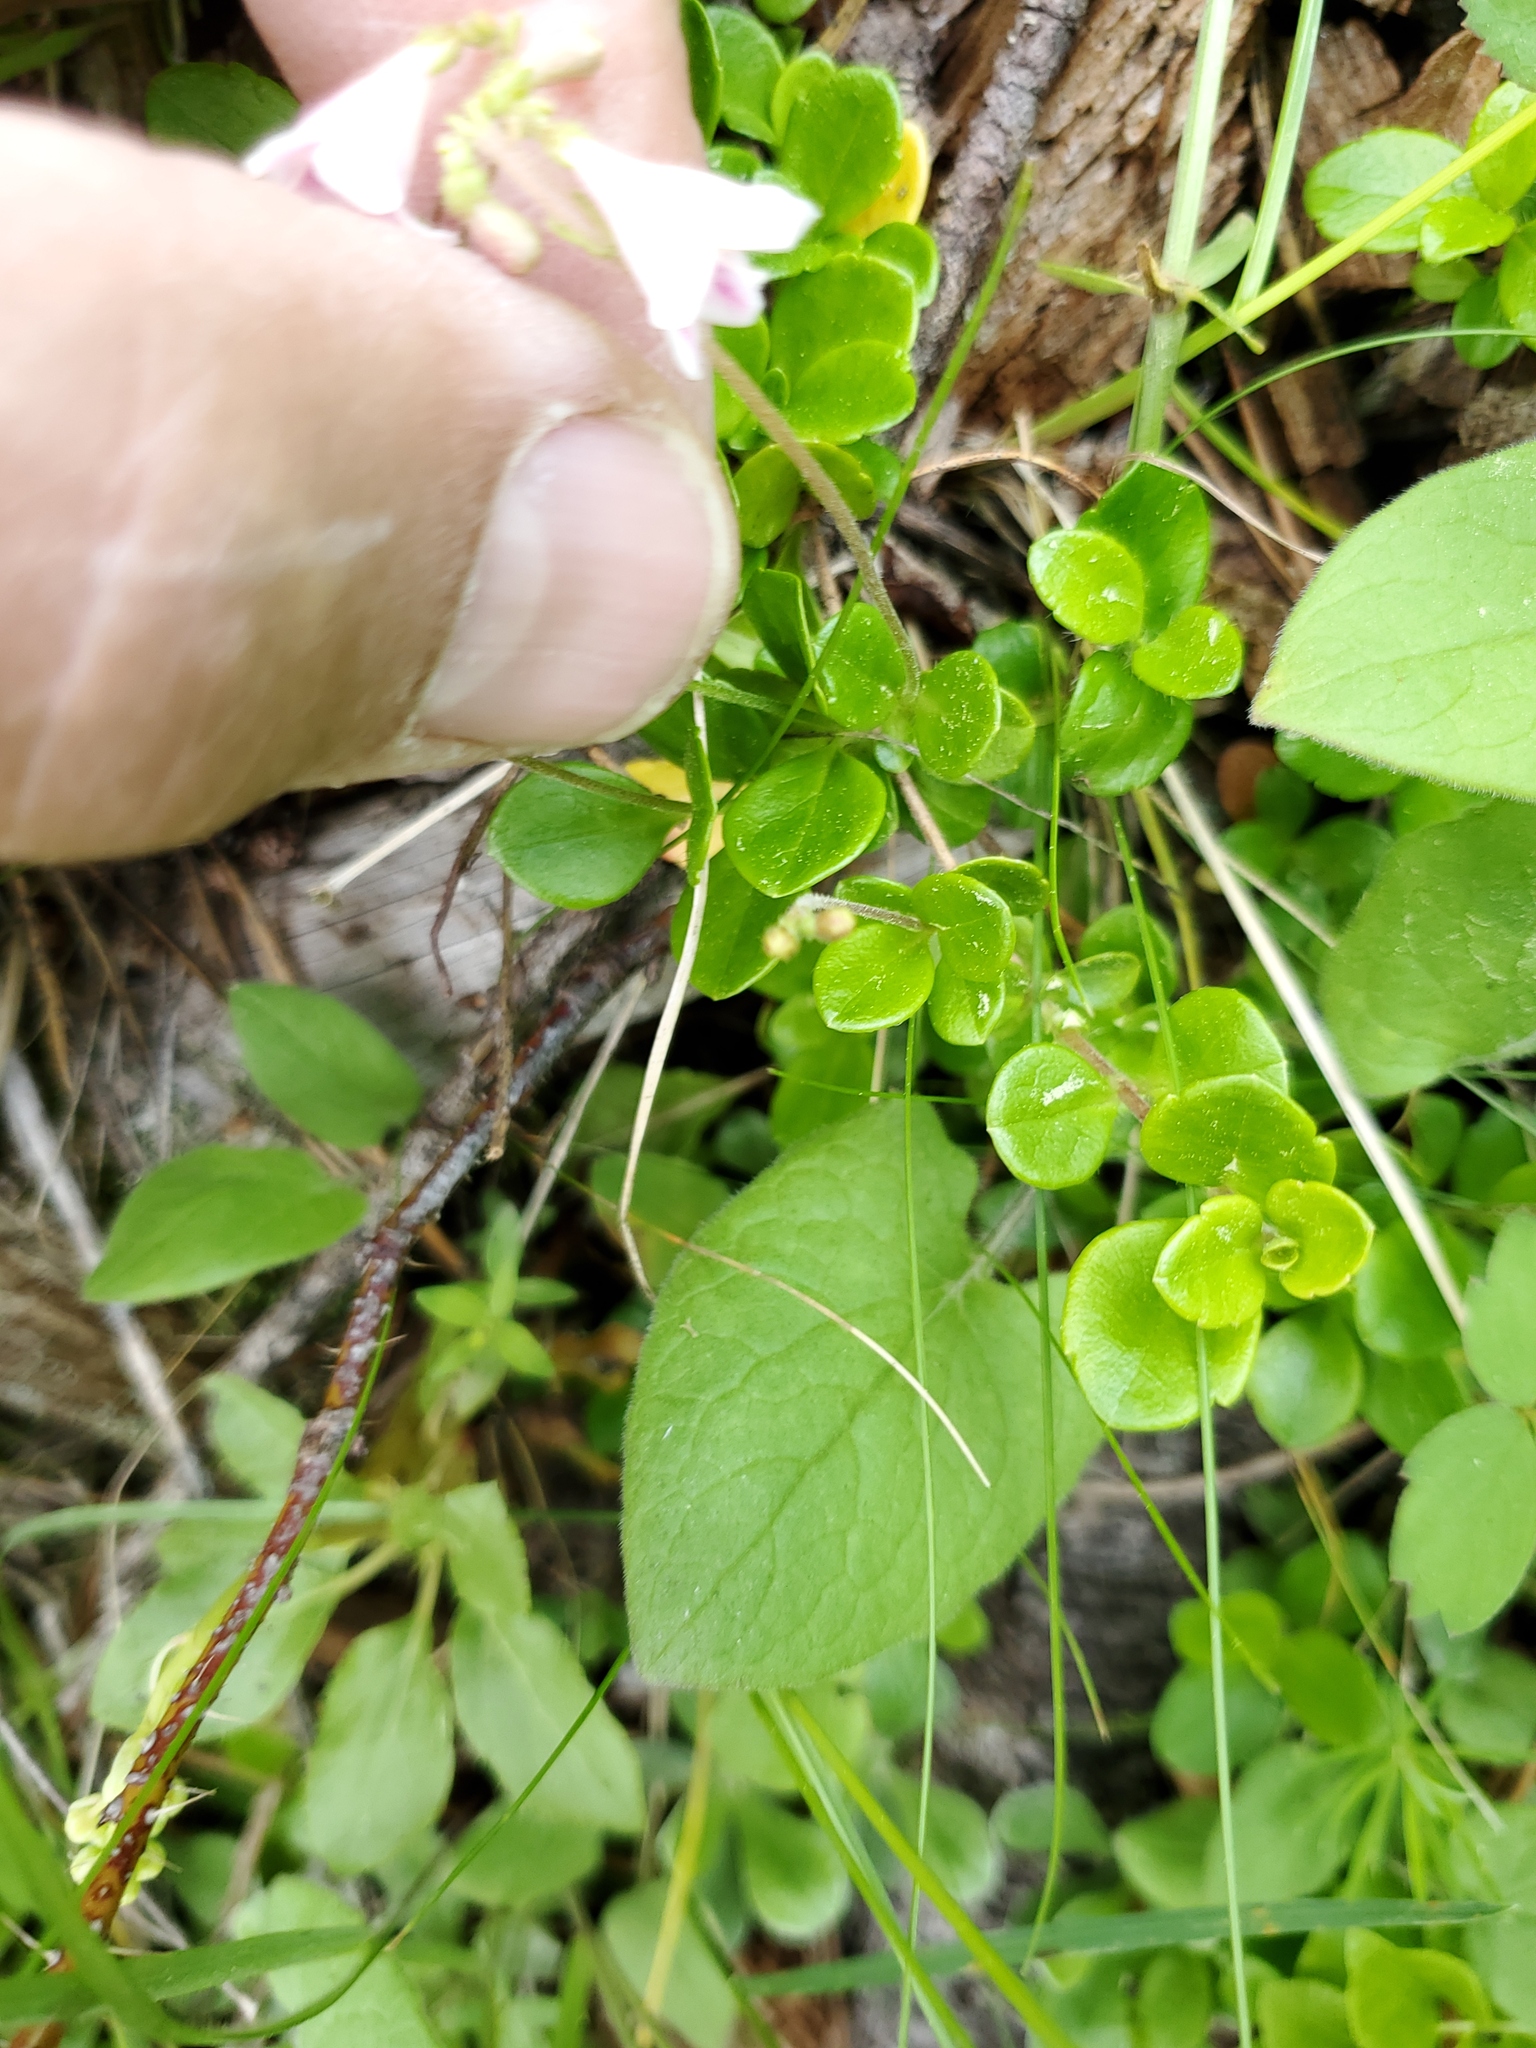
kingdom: Plantae
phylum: Tracheophyta
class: Magnoliopsida
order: Dipsacales
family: Caprifoliaceae
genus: Linnaea
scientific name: Linnaea borealis
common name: Twinflower
